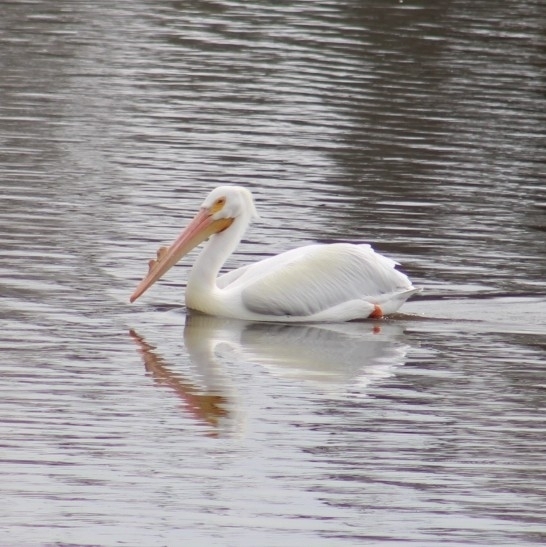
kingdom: Animalia
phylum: Chordata
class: Aves
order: Pelecaniformes
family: Pelecanidae
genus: Pelecanus
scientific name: Pelecanus erythrorhynchos
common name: American white pelican
